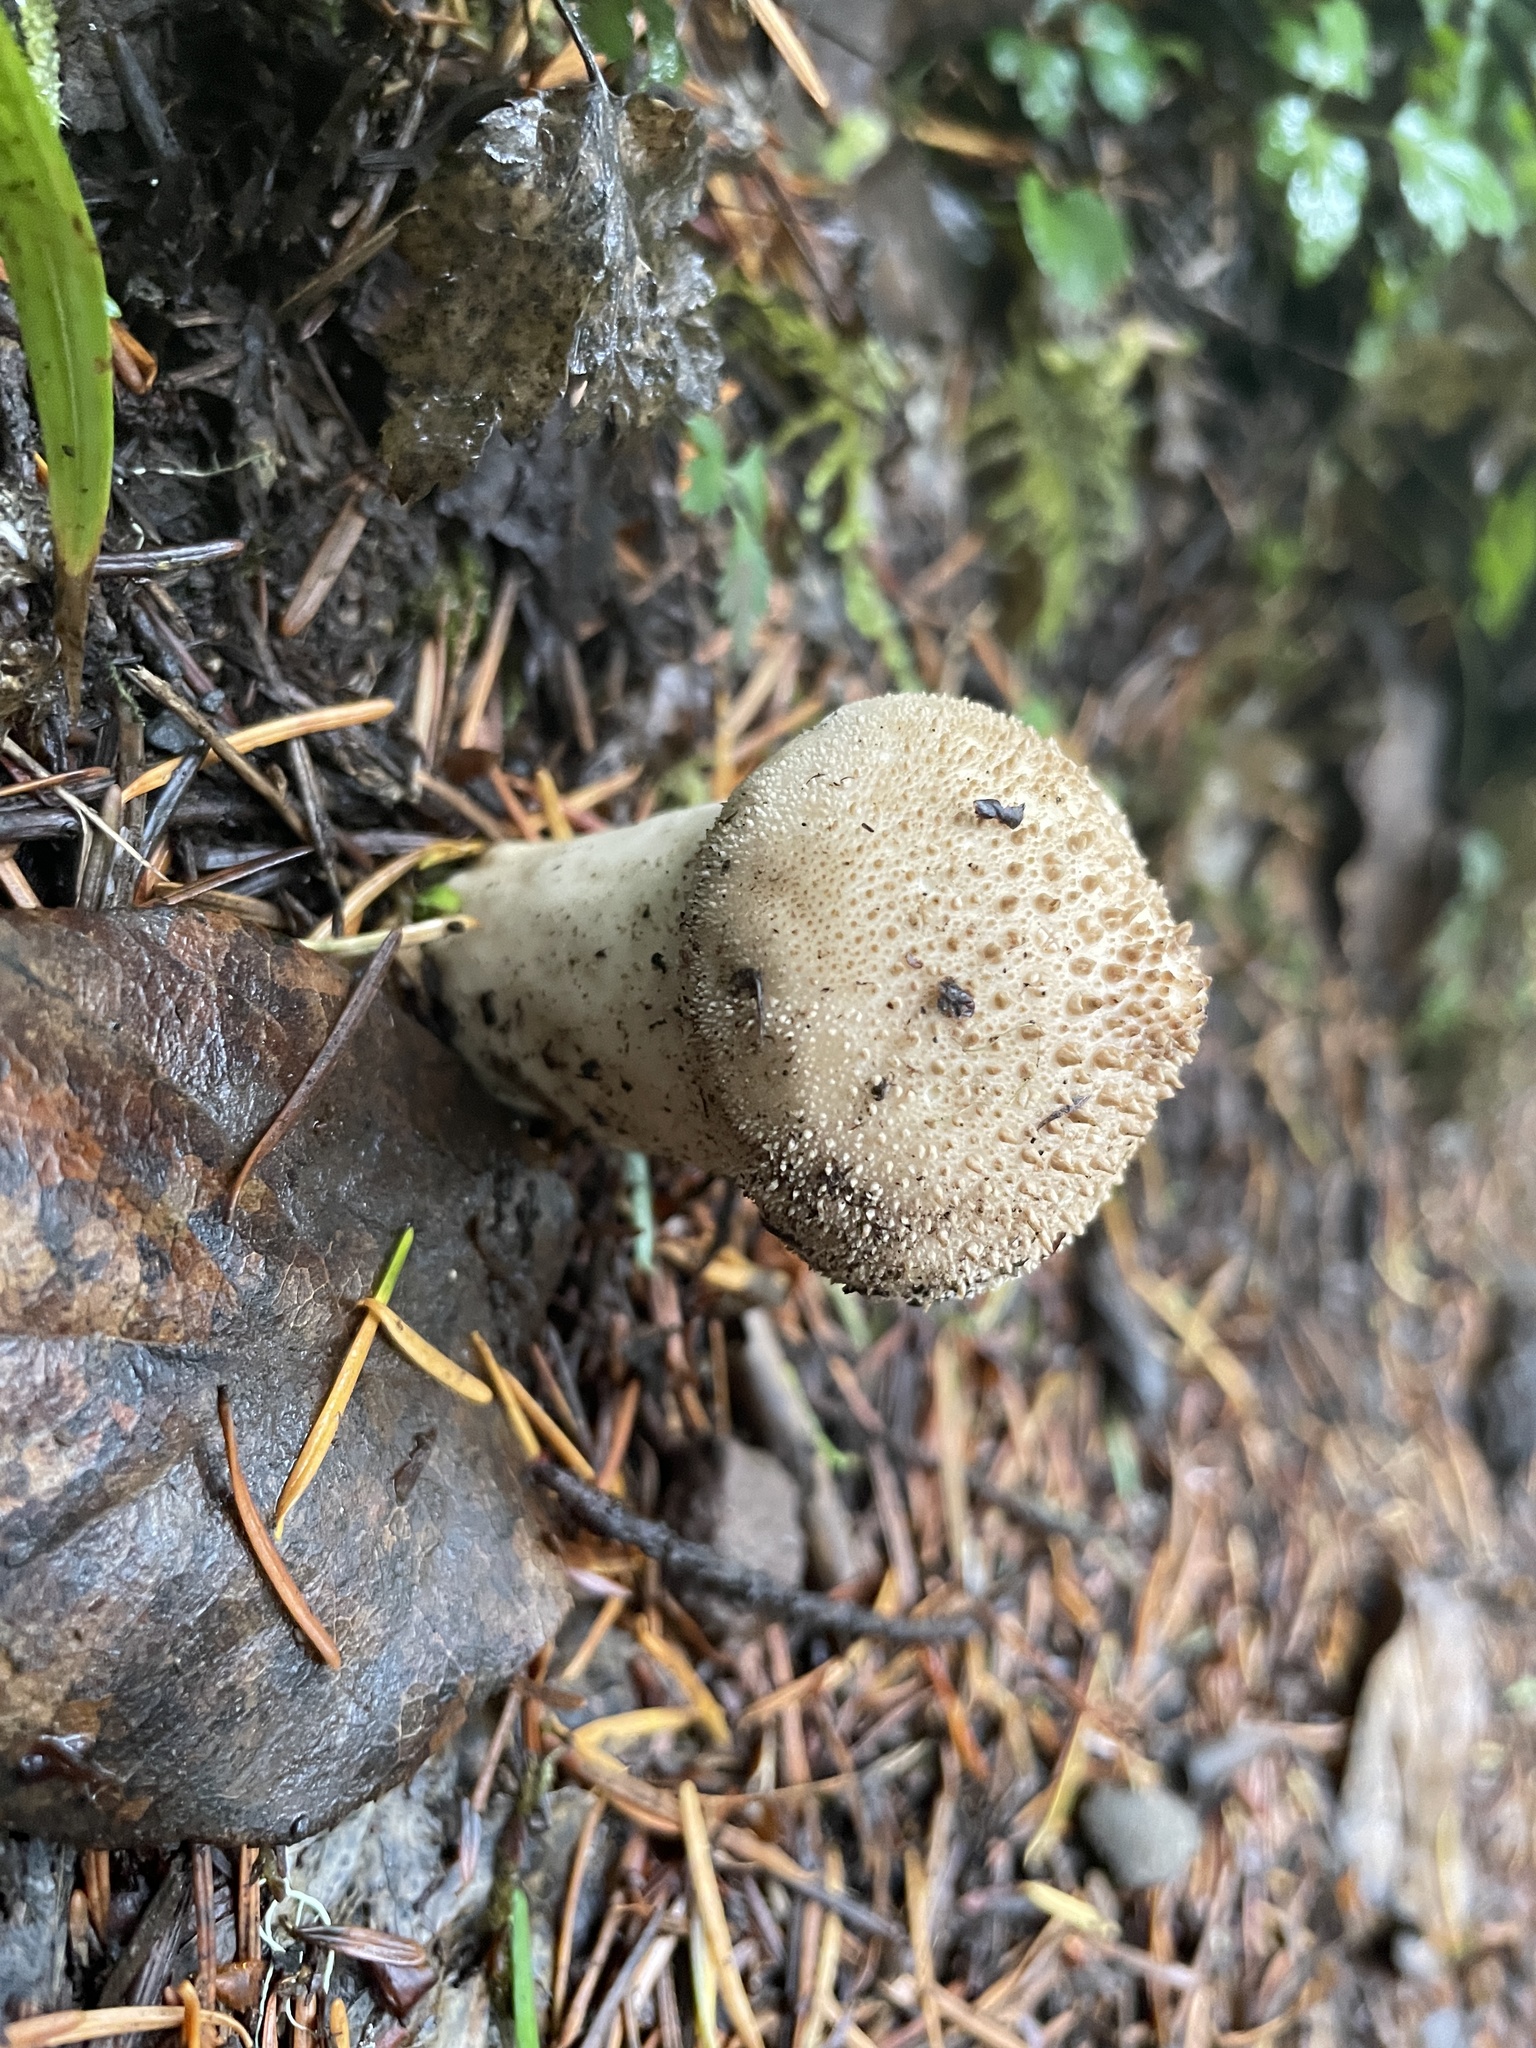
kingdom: Fungi
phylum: Basidiomycota
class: Agaricomycetes
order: Agaricales
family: Lycoperdaceae
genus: Lycoperdon
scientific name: Lycoperdon perlatum
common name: Common puffball
